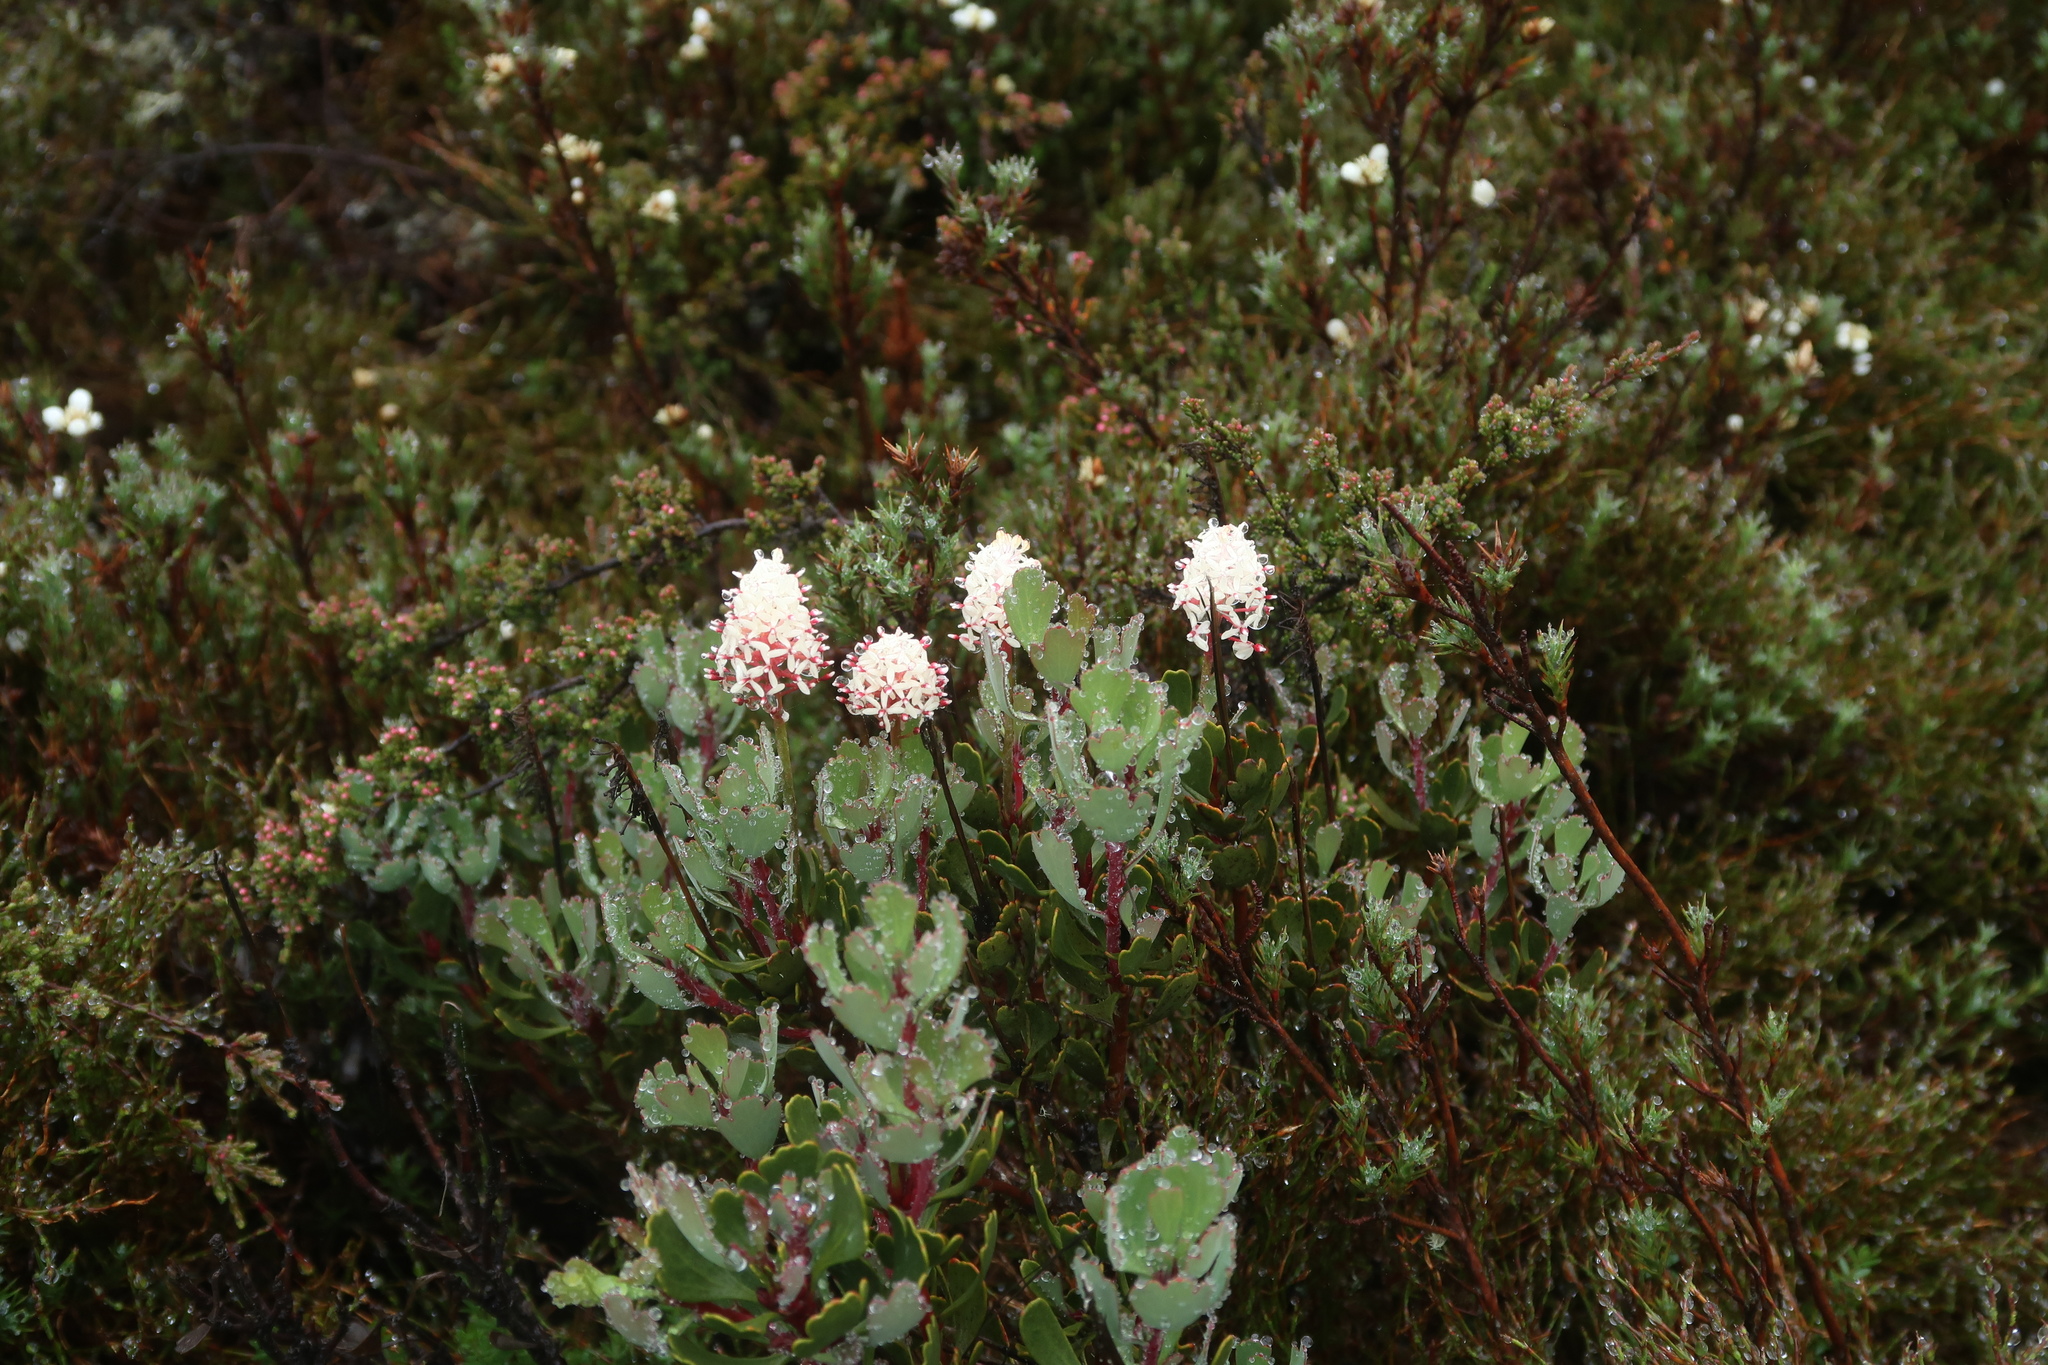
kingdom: Plantae
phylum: Tracheophyta
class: Magnoliopsida
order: Proteales
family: Proteaceae
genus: Bellendena
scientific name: Bellendena montana
